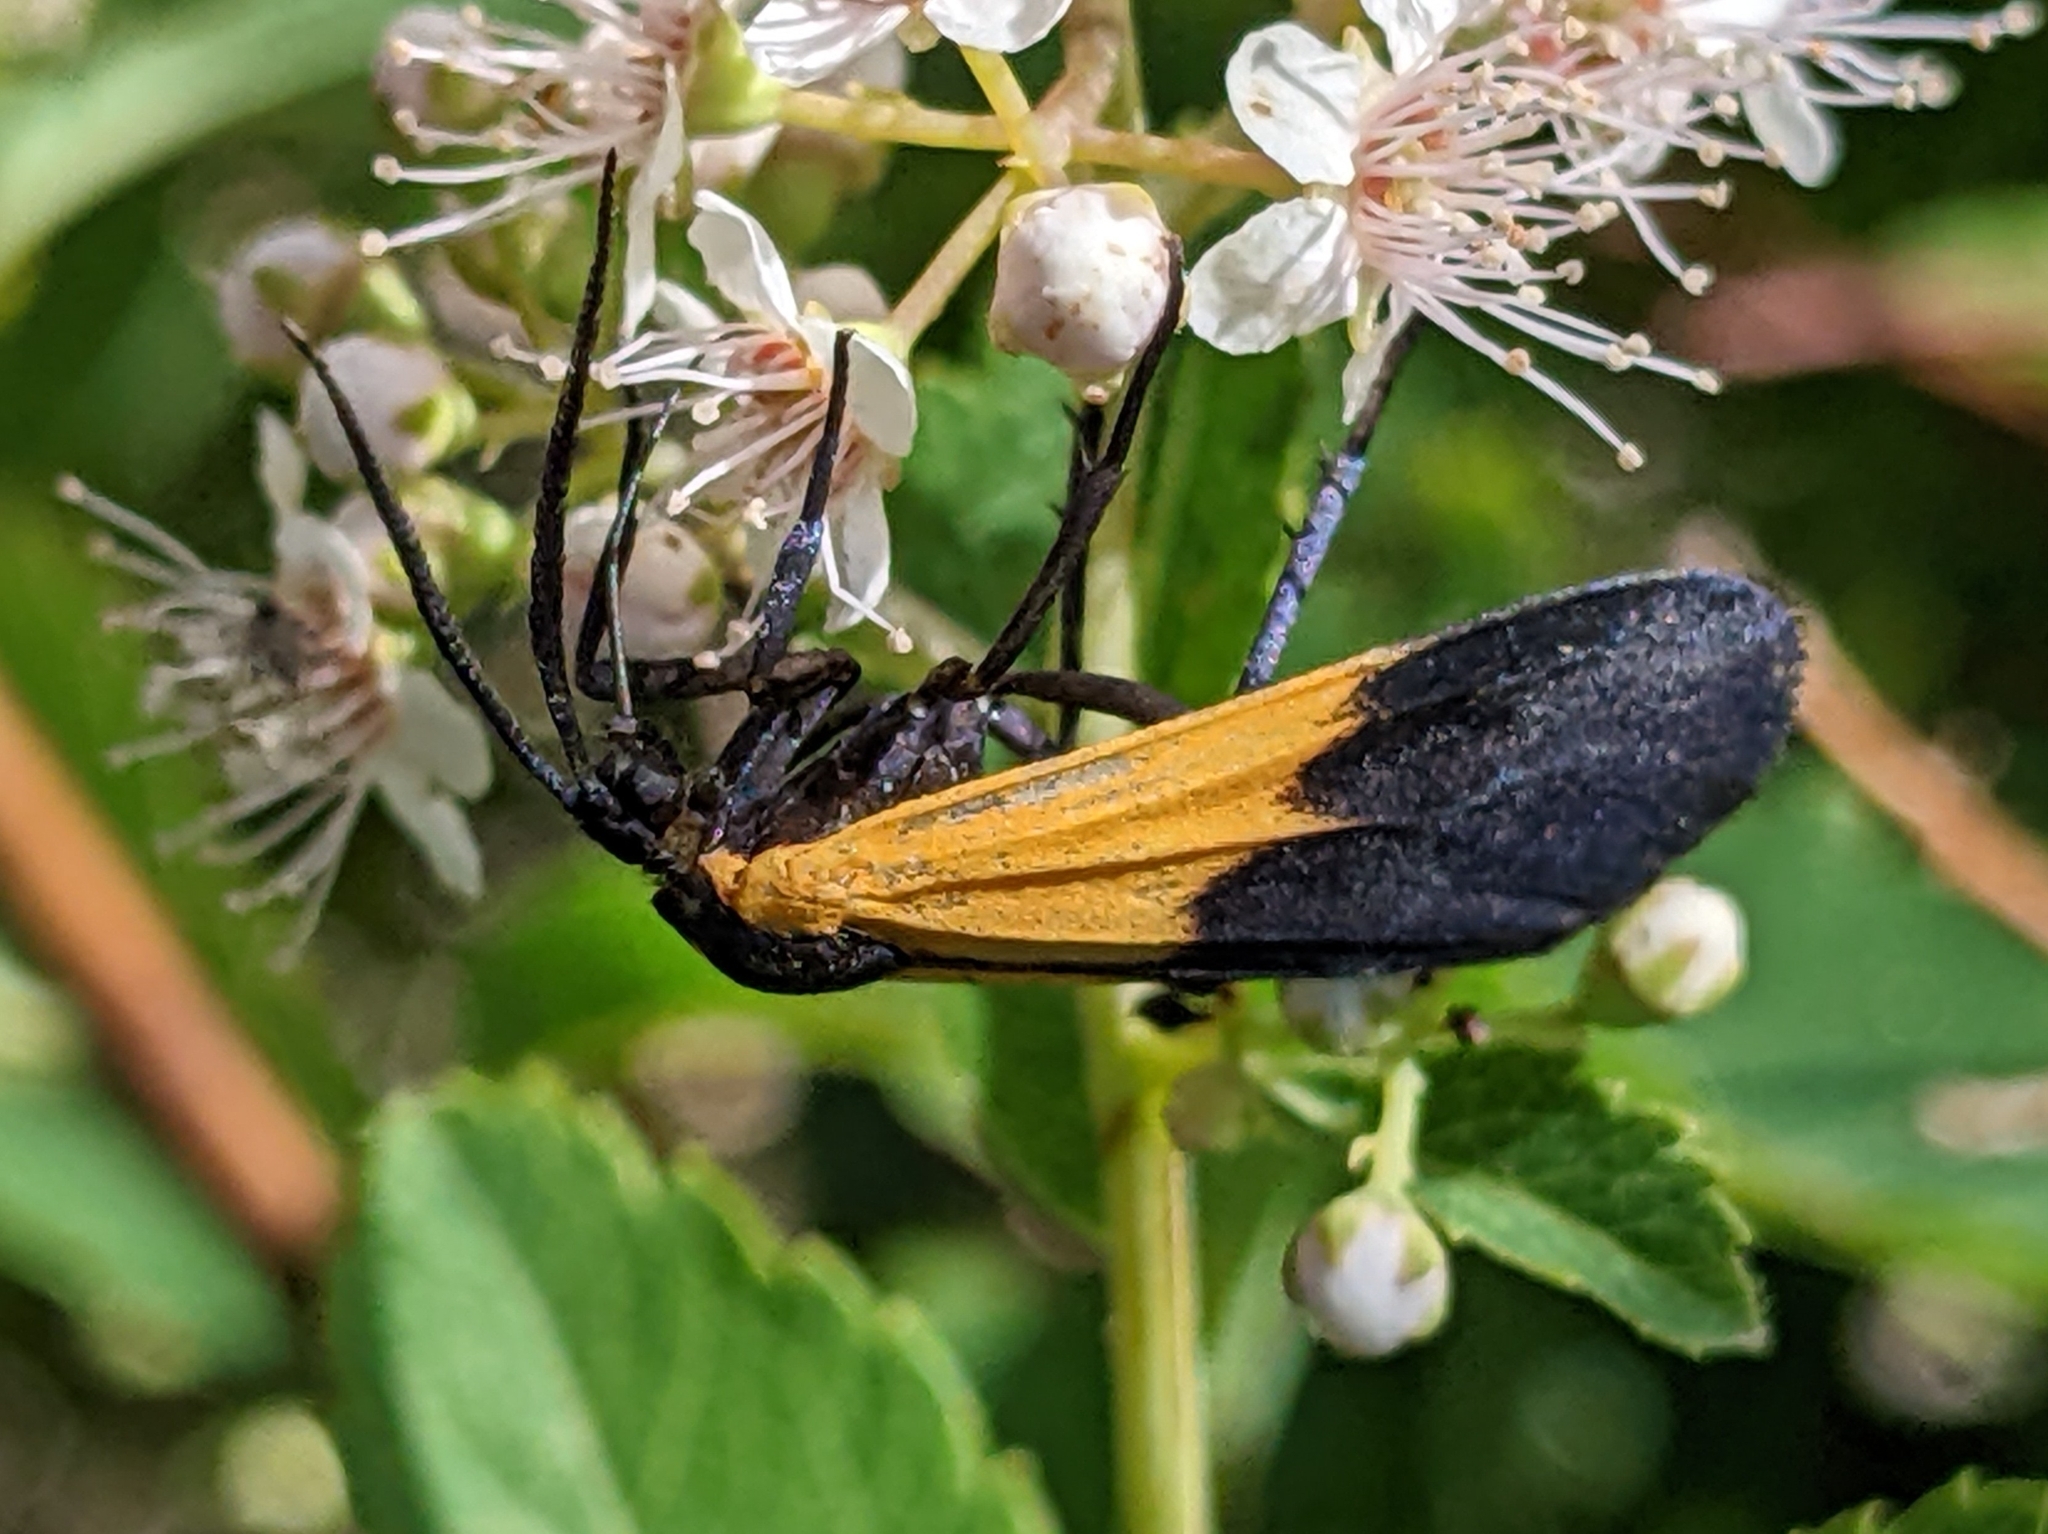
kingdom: Animalia
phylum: Arthropoda
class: Insecta
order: Lepidoptera
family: Erebidae
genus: Lycomorpha
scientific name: Lycomorpha pholus
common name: Black-and-yellow lichen moth
